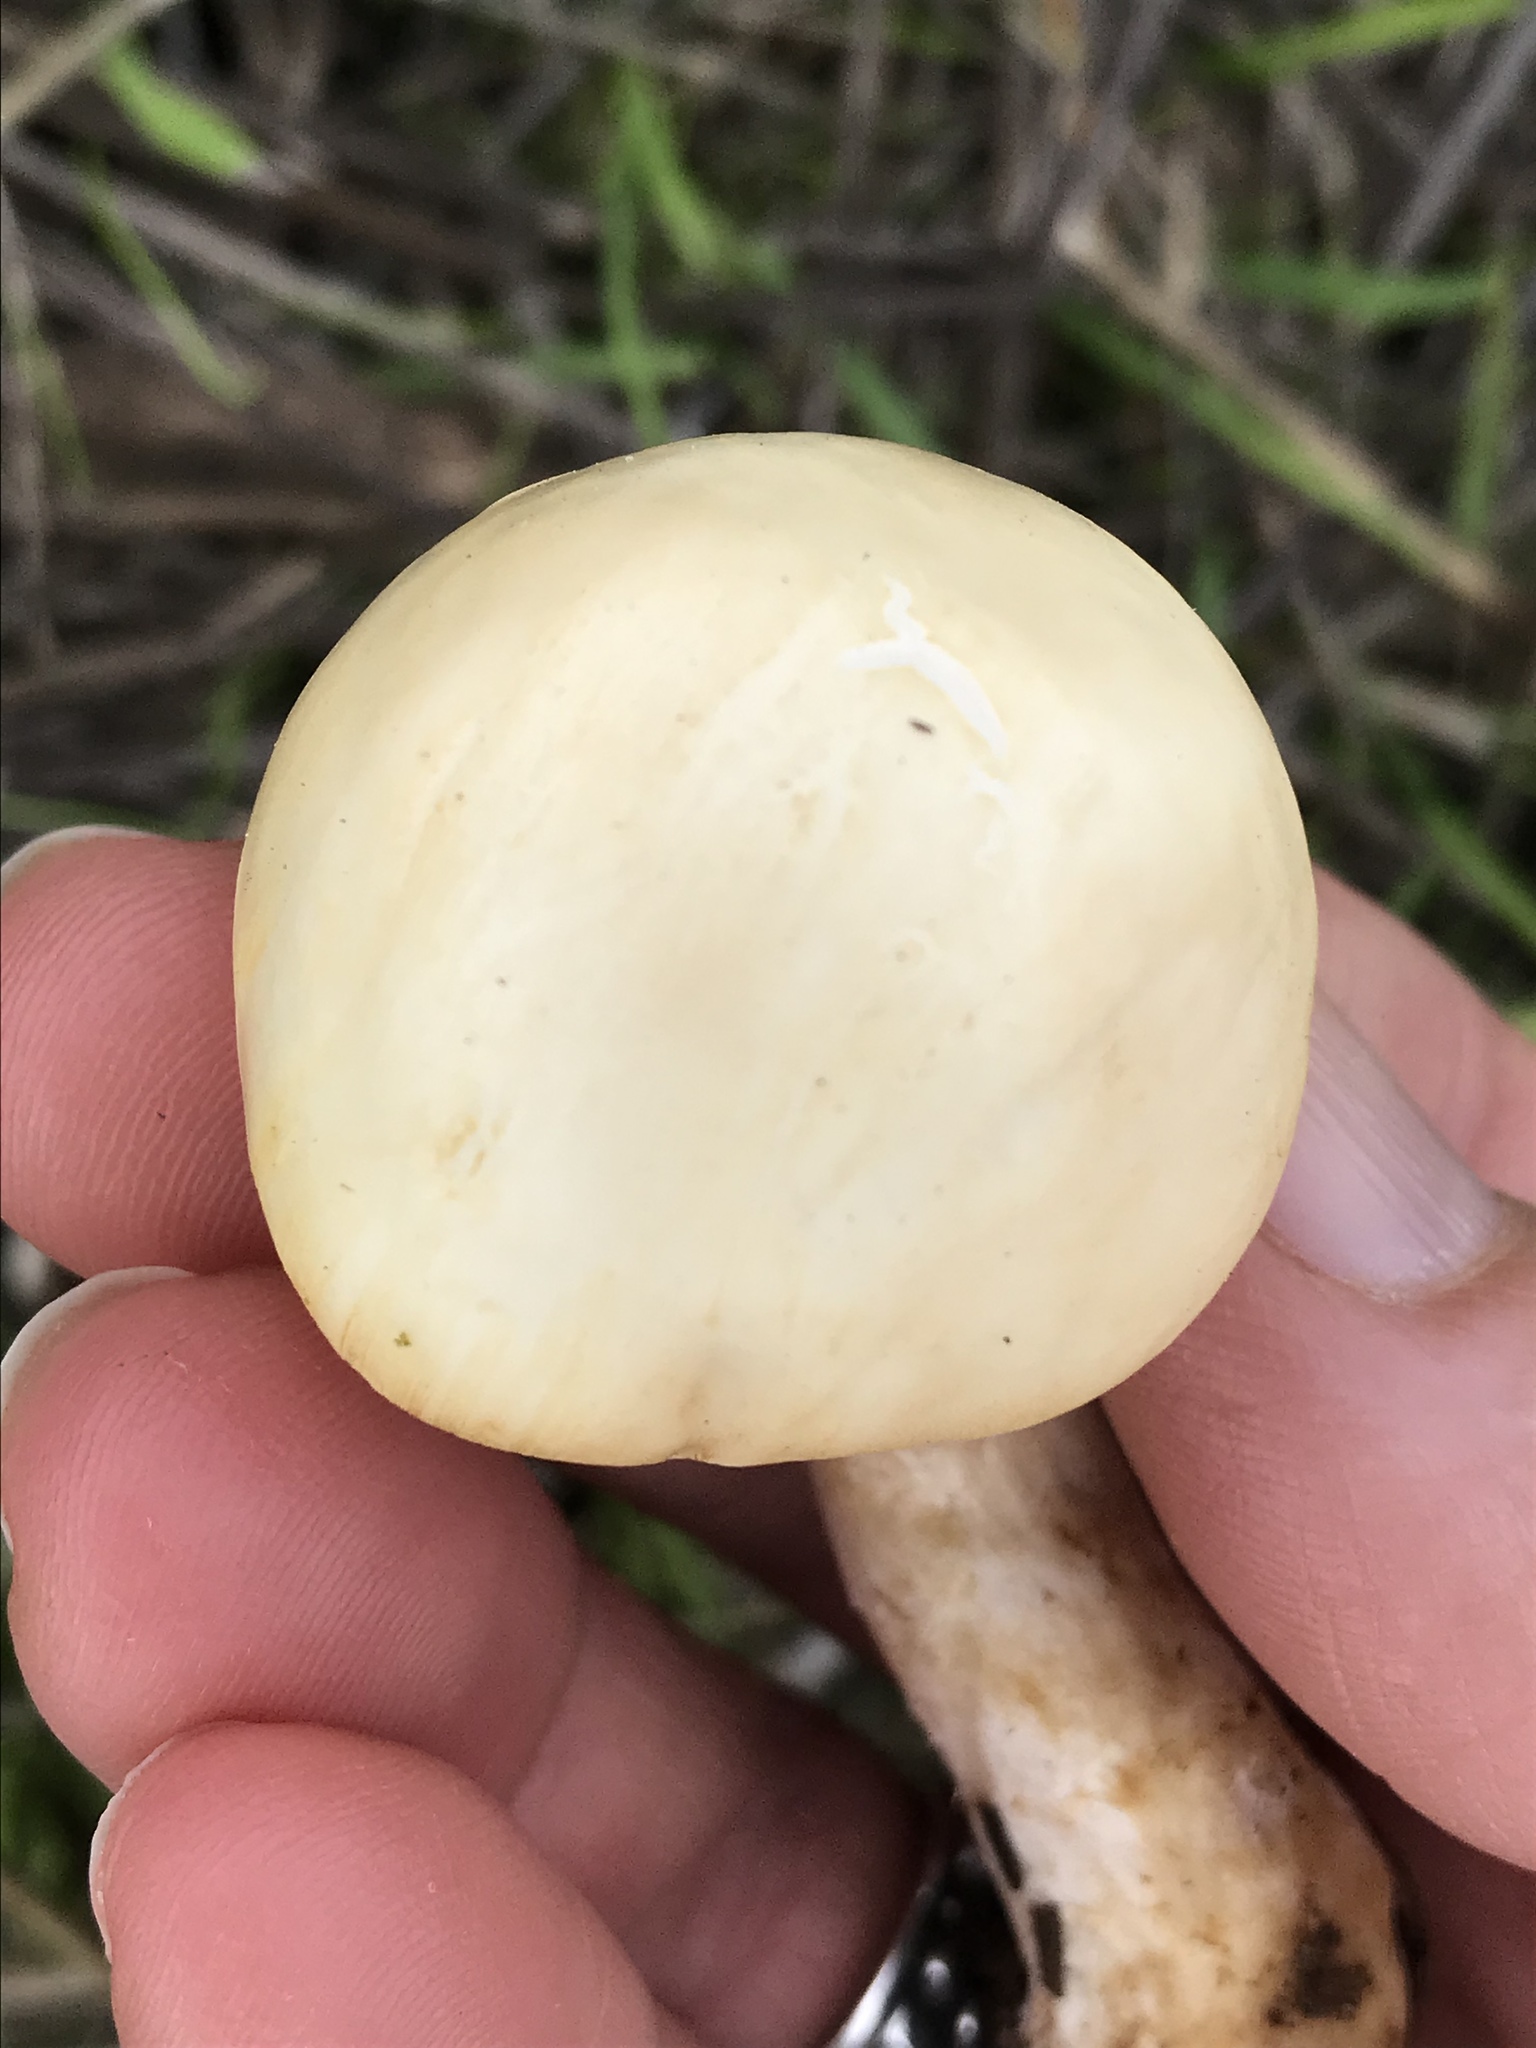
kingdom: Fungi
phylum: Basidiomycota
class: Agaricomycetes
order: Agaricales
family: Strophariaceae
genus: Agrocybe
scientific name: Agrocybe praecox
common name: Spring fieldcap
